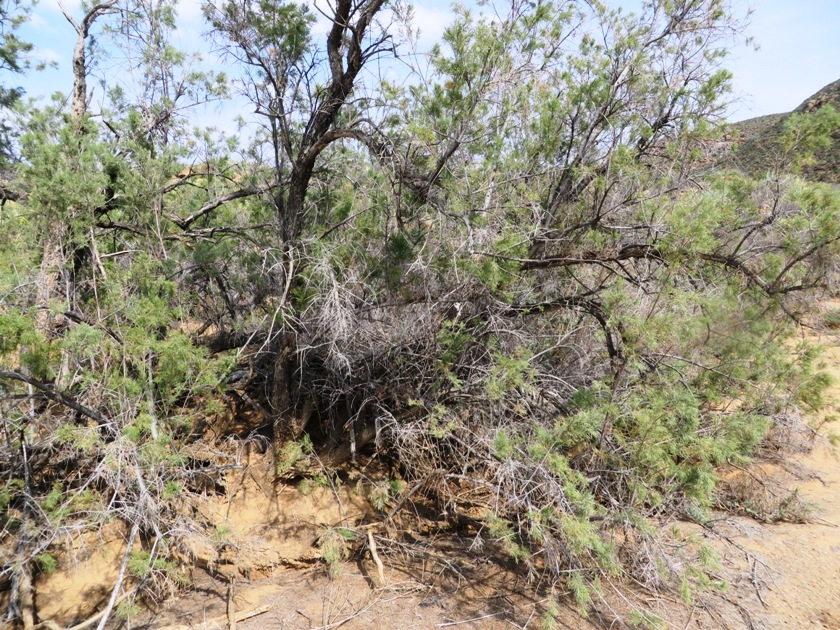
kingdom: Plantae
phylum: Tracheophyta
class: Magnoliopsida
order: Caryophyllales
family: Tamaricaceae
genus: Tamarix
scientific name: Tamarix usneoides
